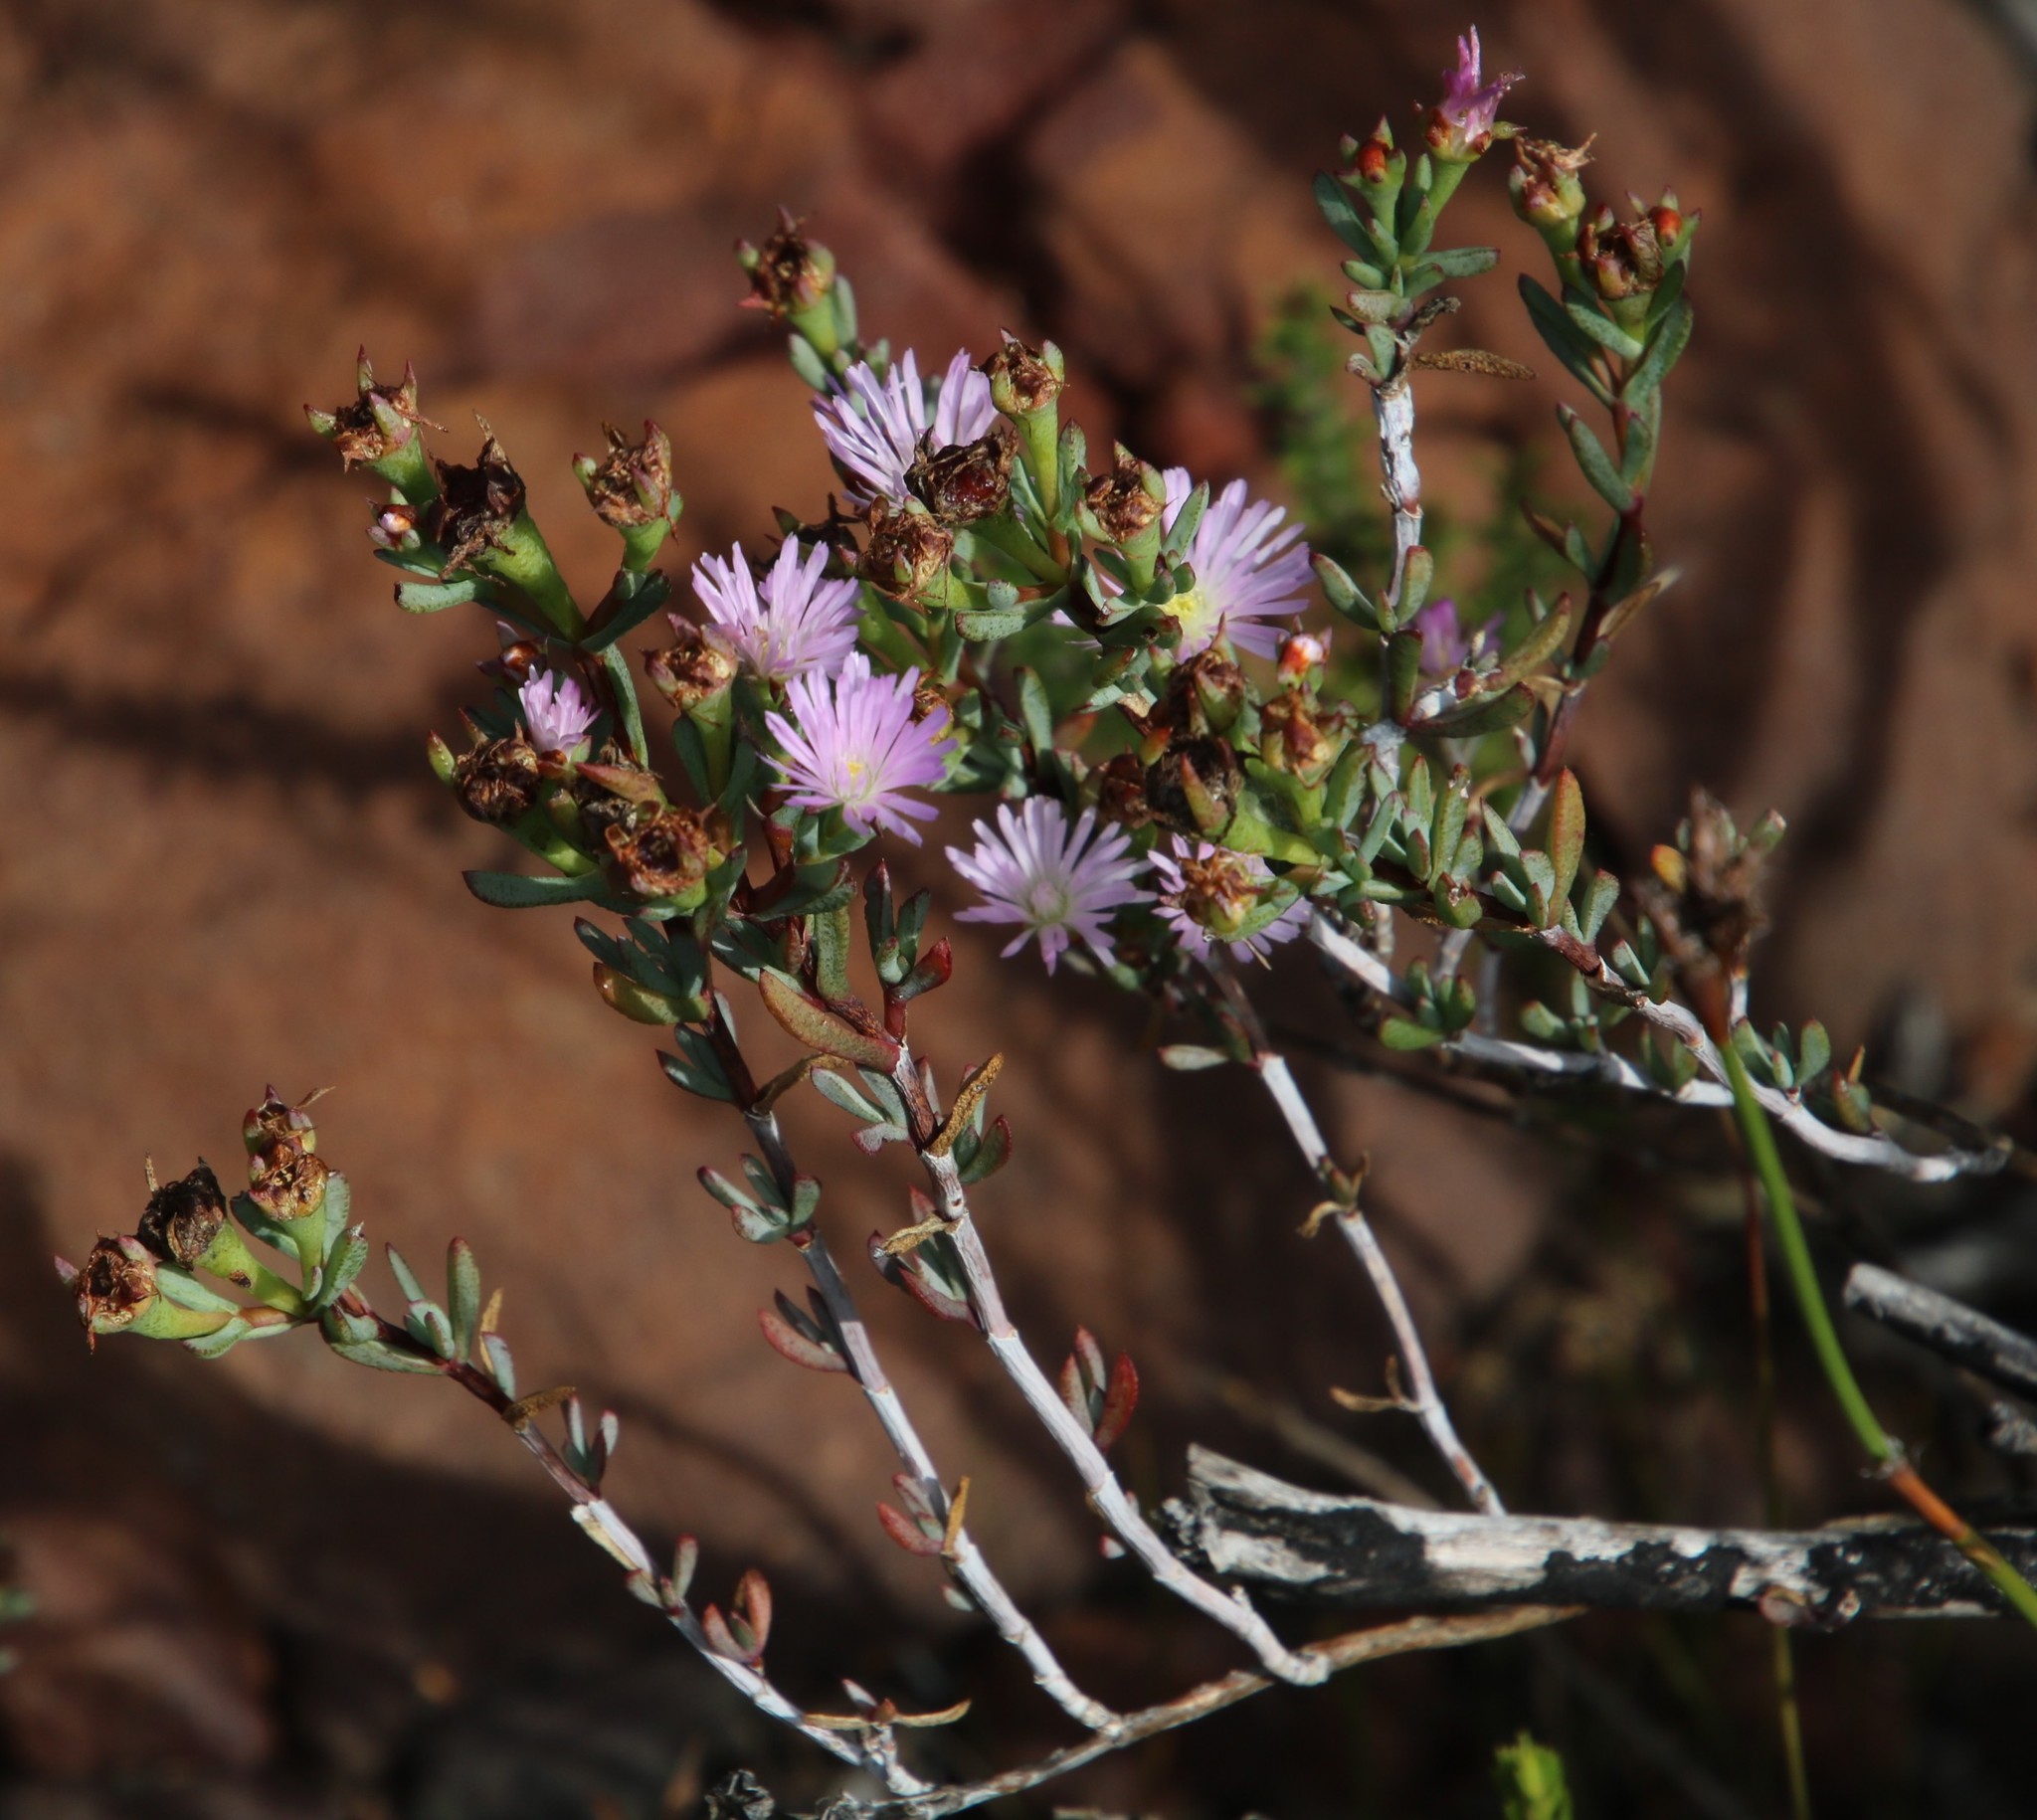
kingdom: Plantae
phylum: Tracheophyta
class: Magnoliopsida
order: Caryophyllales
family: Aizoaceae
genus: Lampranthus
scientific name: Lampranthus glomeratus
